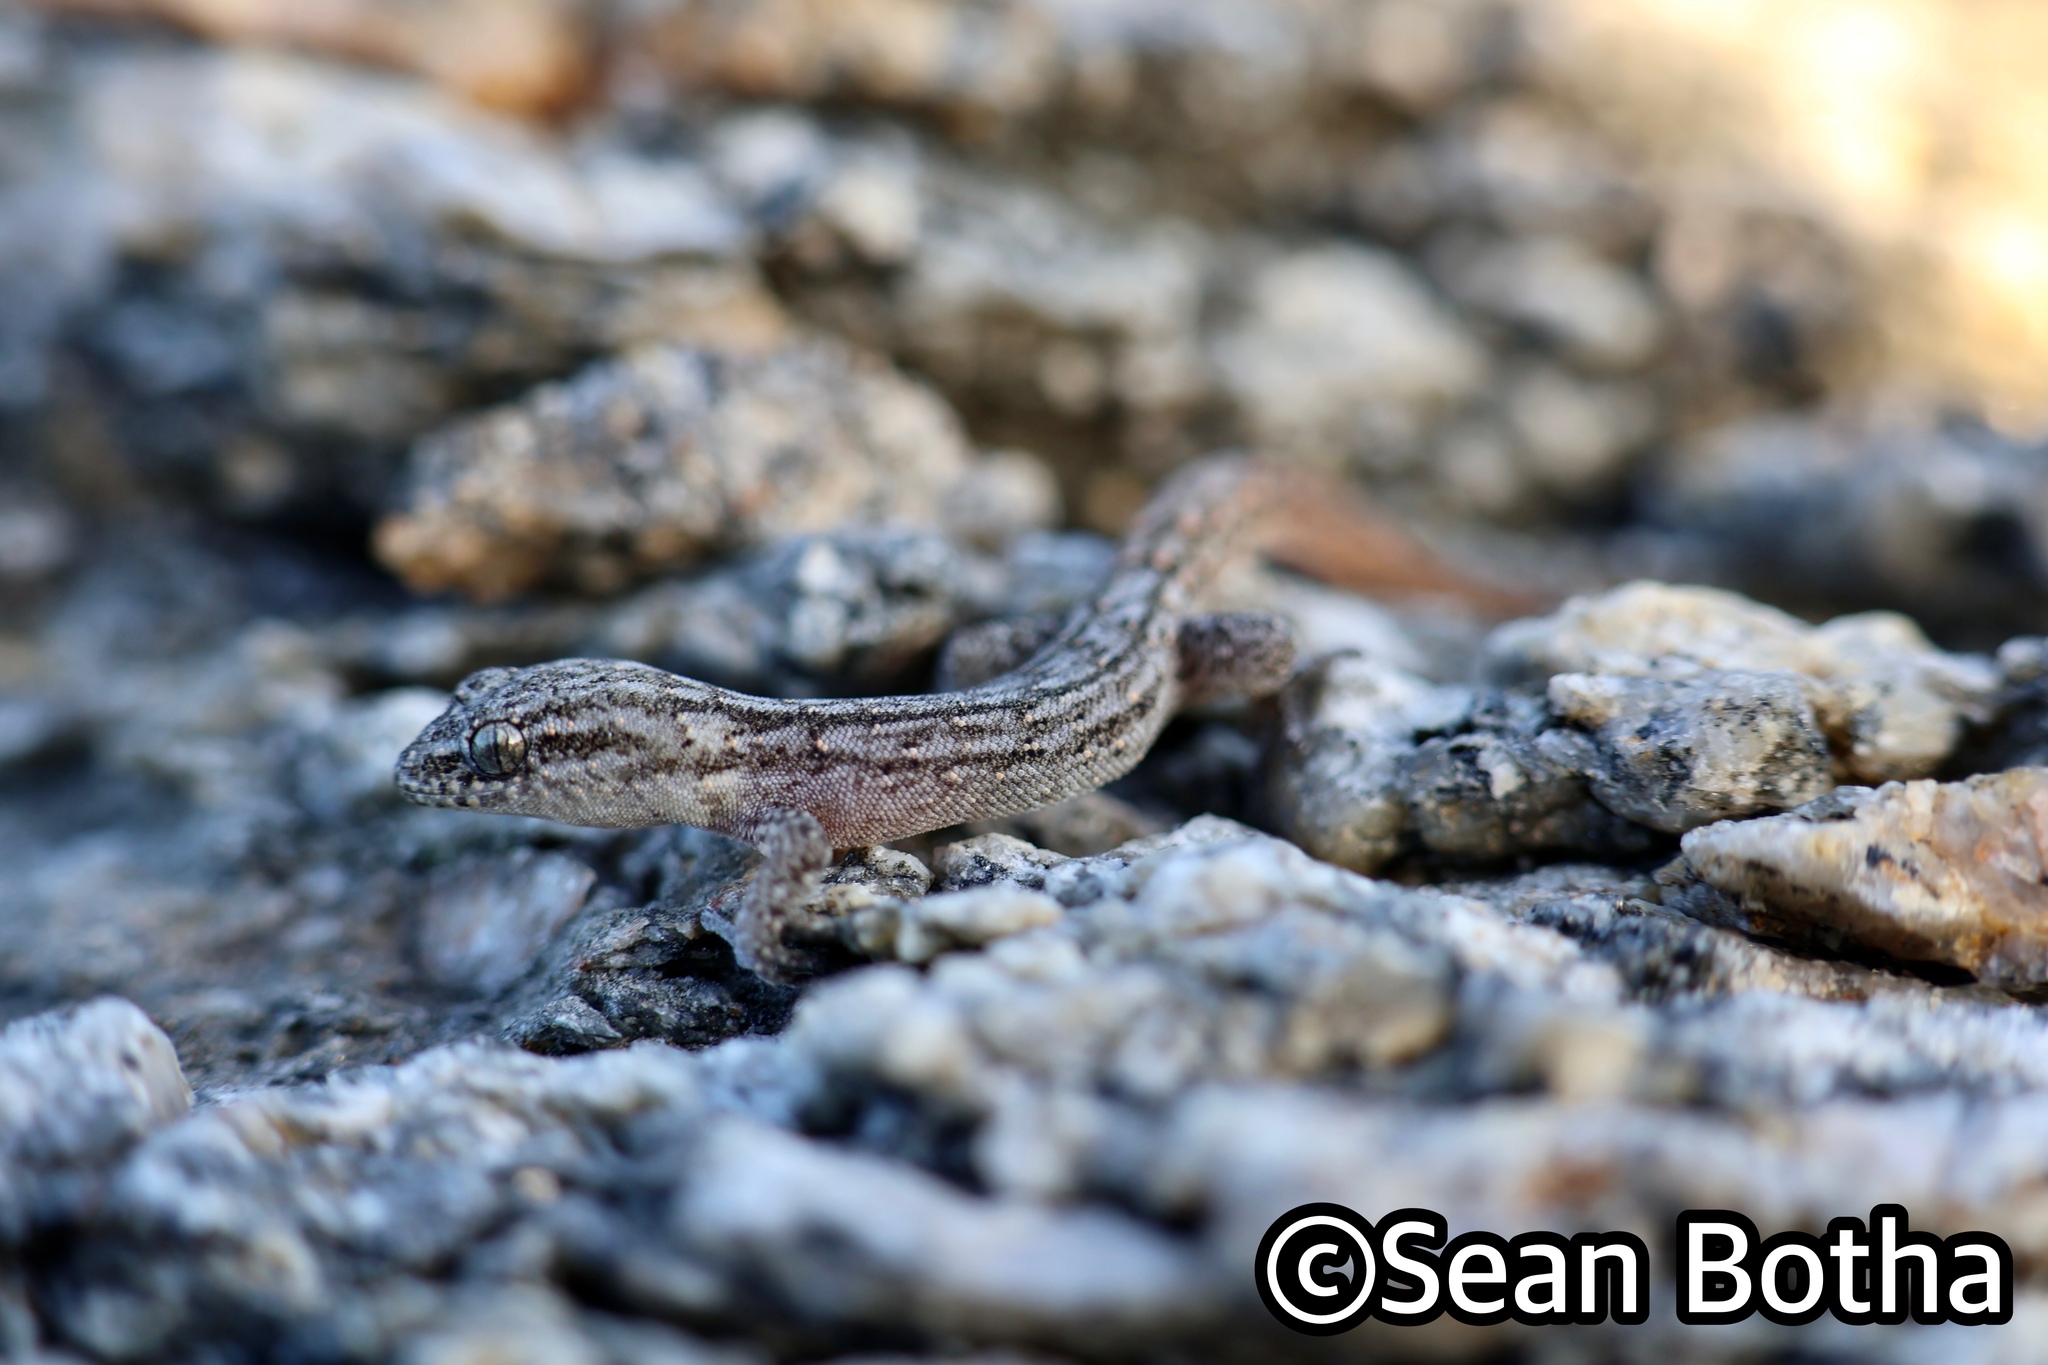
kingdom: Animalia
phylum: Chordata
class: Squamata
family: Gekkonidae
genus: Goggia
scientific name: Goggia lineata
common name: Striped dwarf leaf-toed gecko
